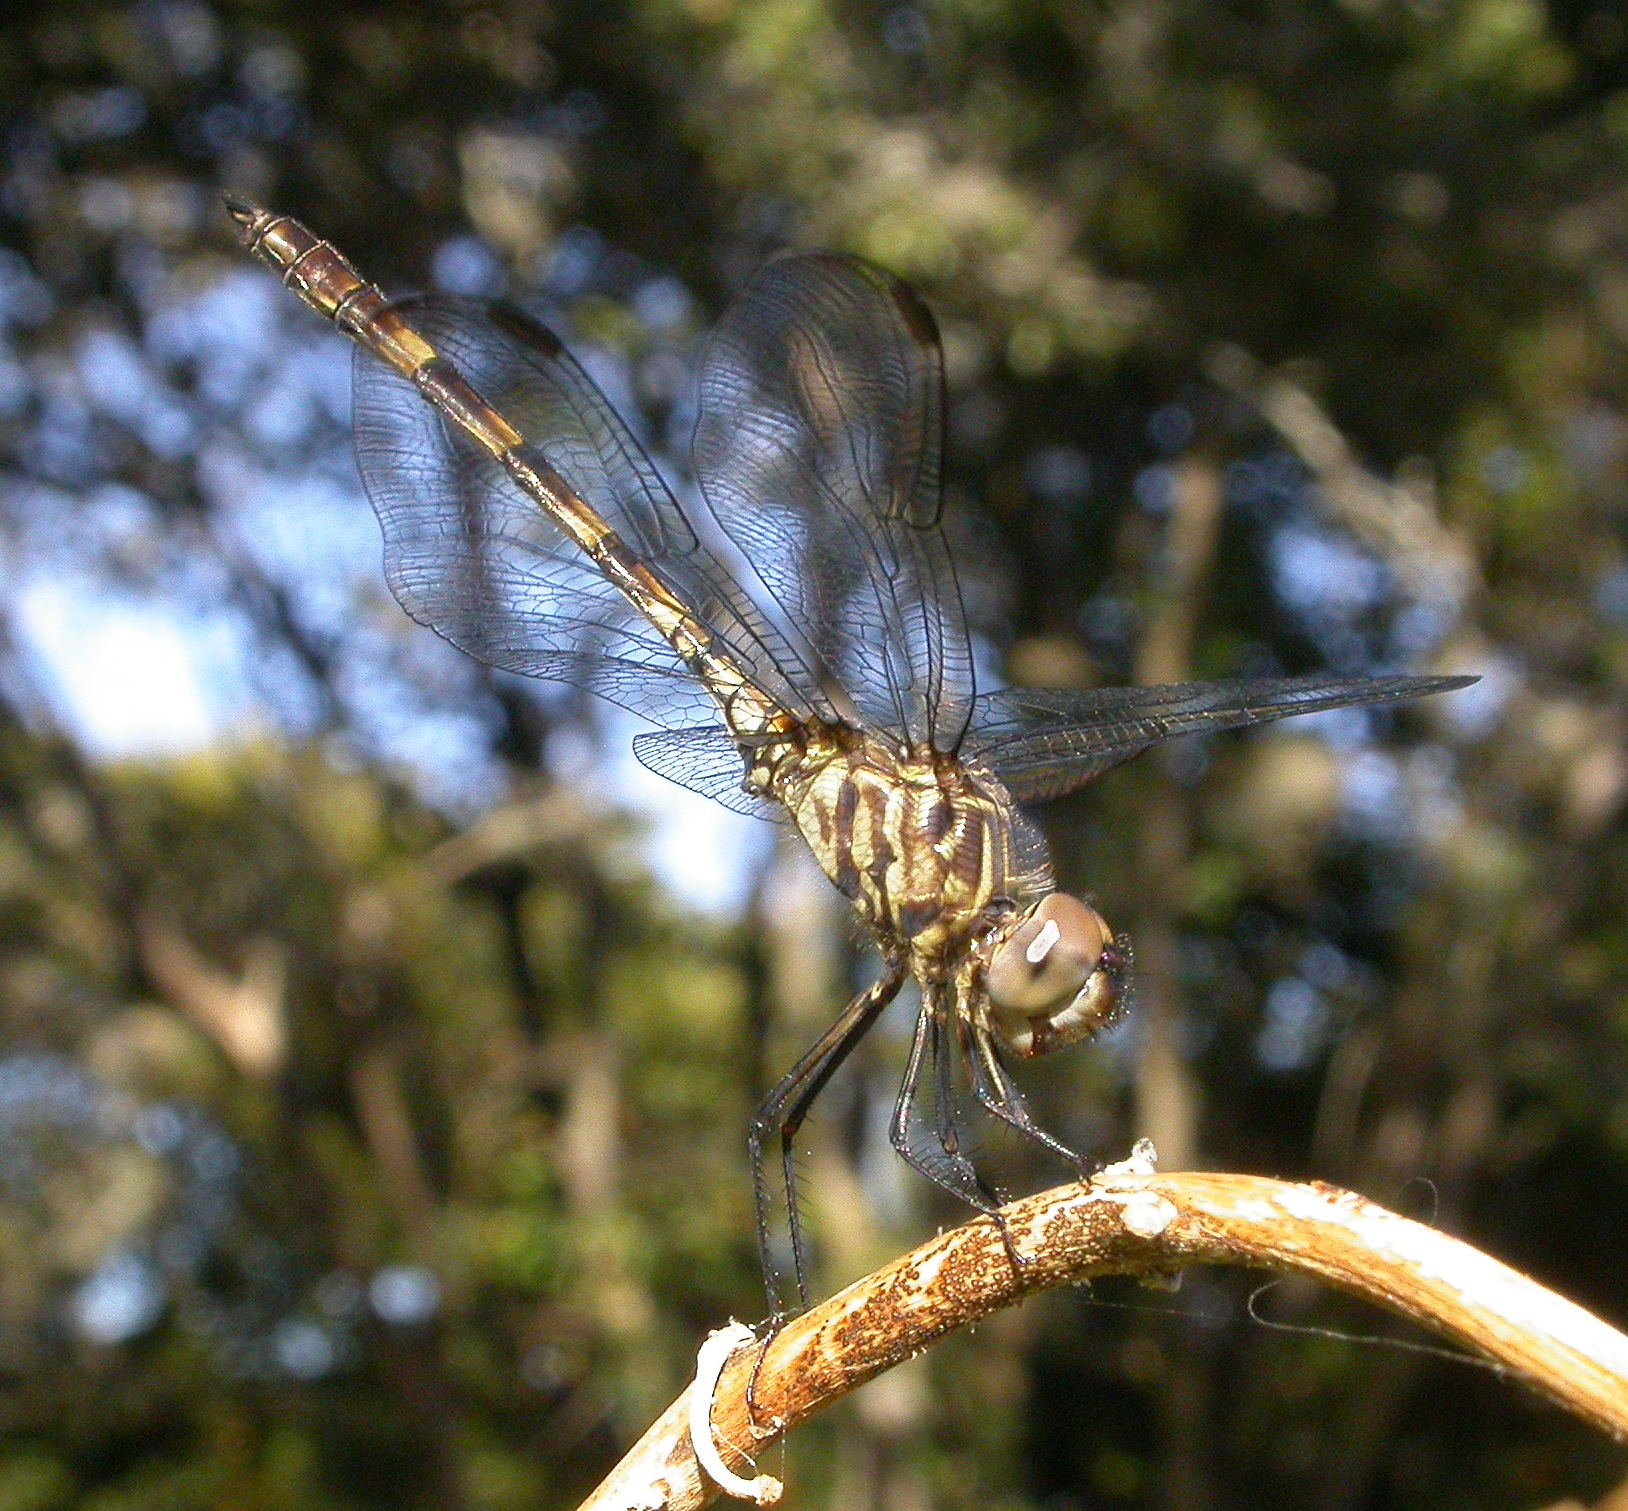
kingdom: Animalia
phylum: Arthropoda
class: Insecta
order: Odonata
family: Libellulidae
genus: Dythemis
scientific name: Dythemis nigrescens
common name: Black setwing
